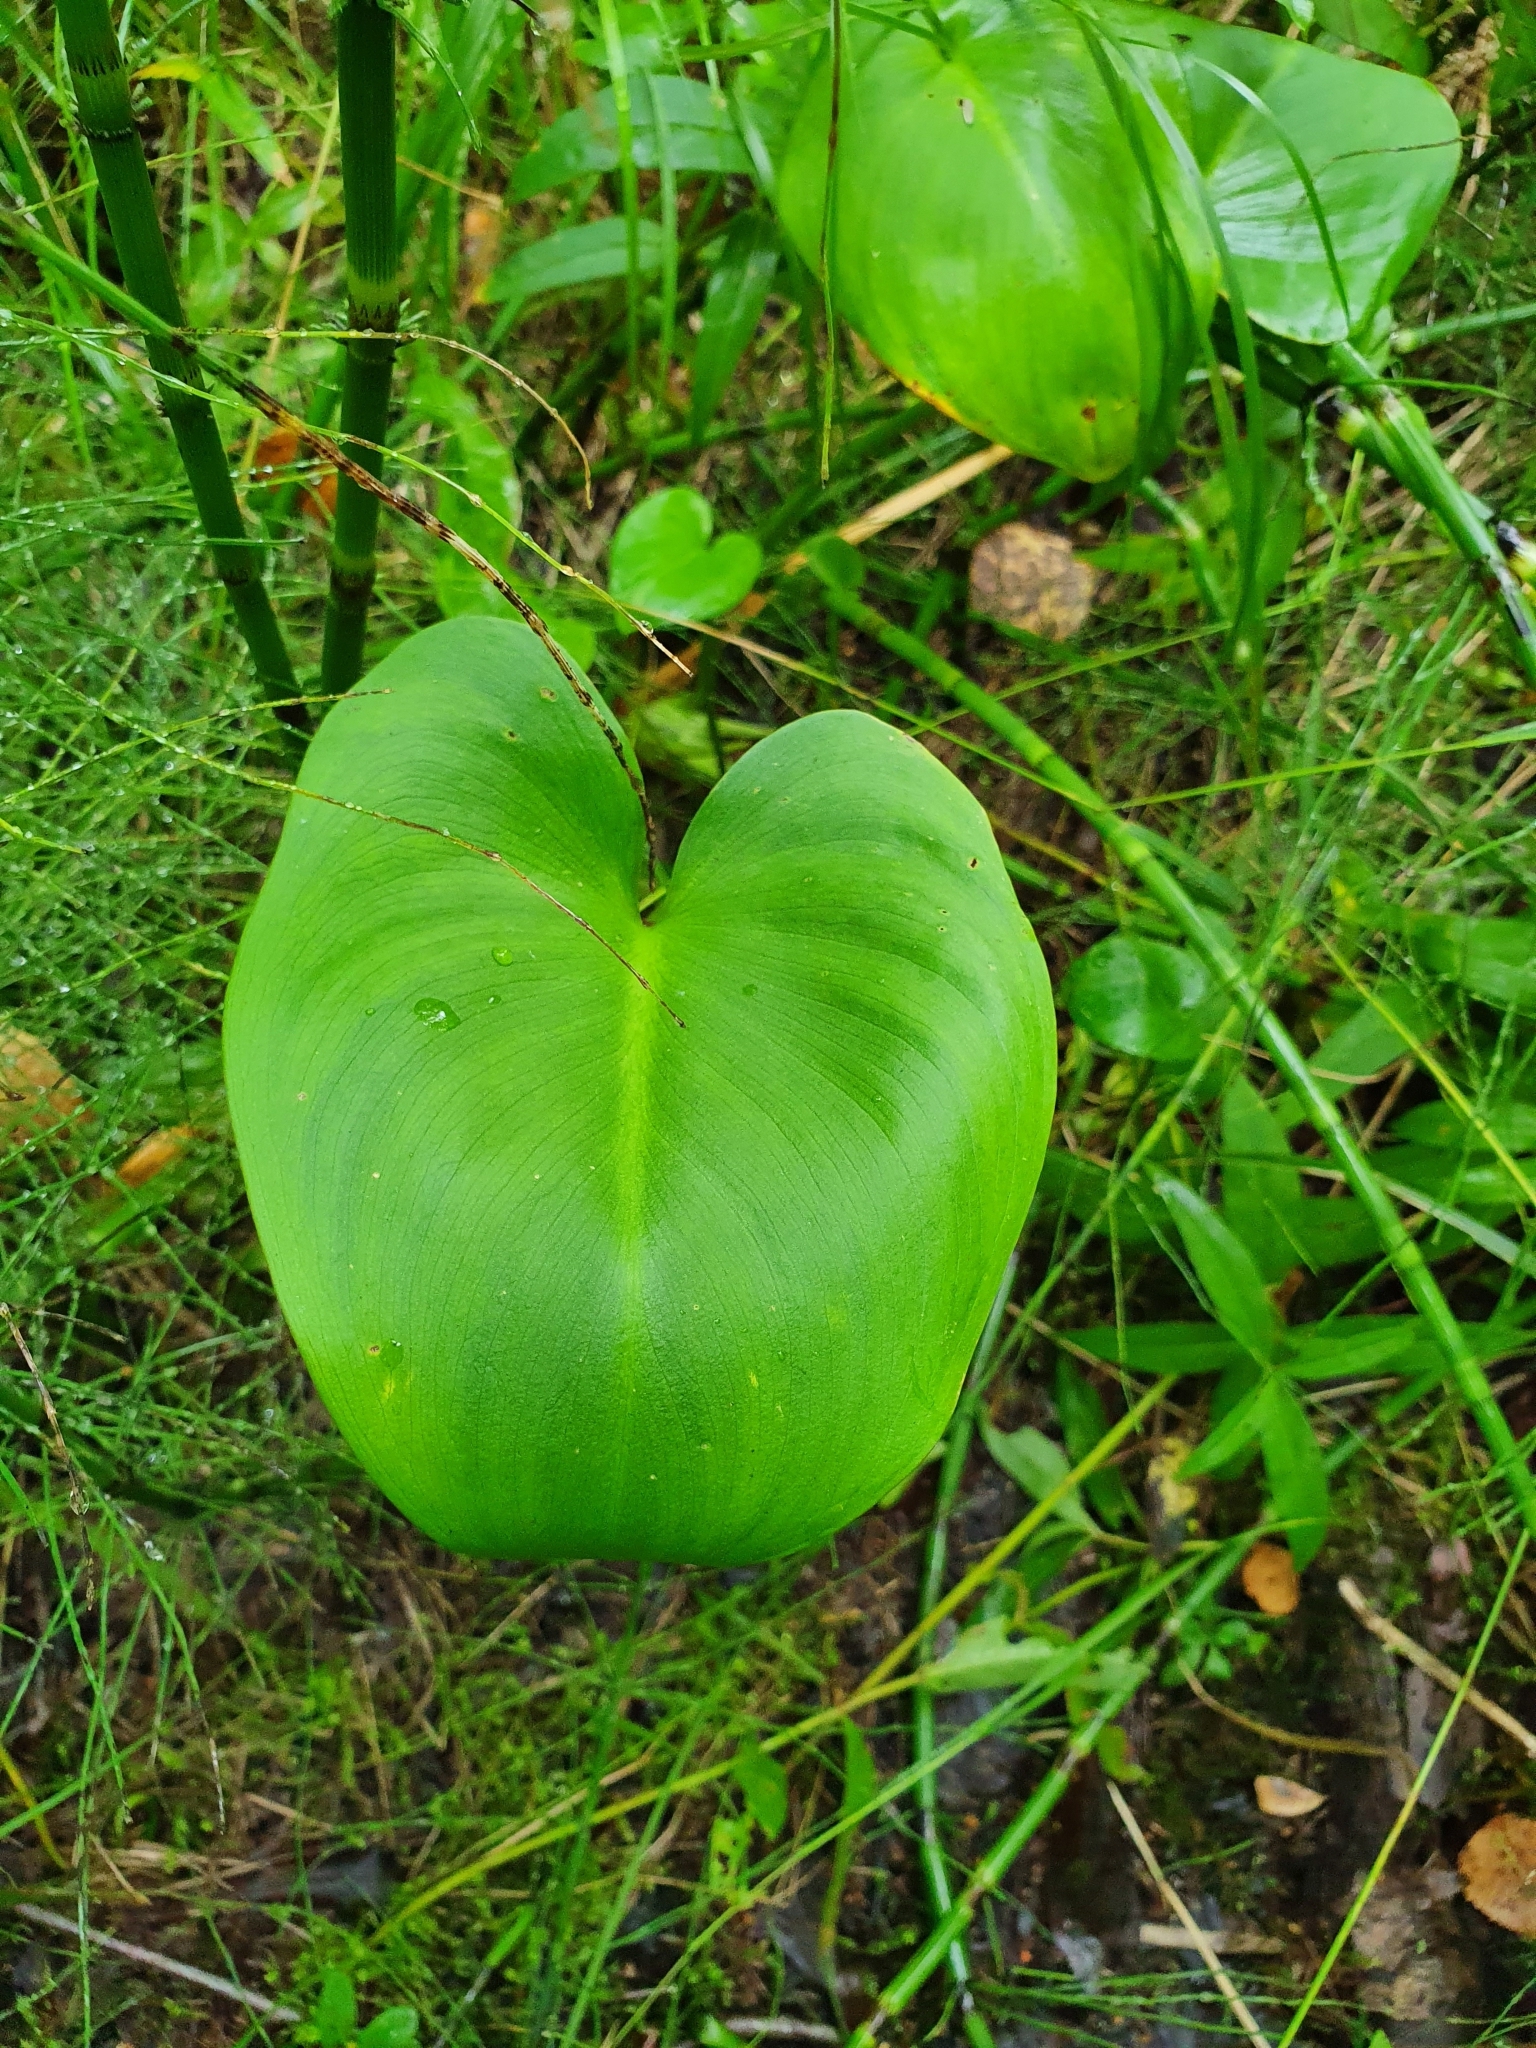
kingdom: Plantae
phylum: Tracheophyta
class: Liliopsida
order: Alismatales
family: Araceae
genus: Calla
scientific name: Calla palustris
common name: Bog arum
